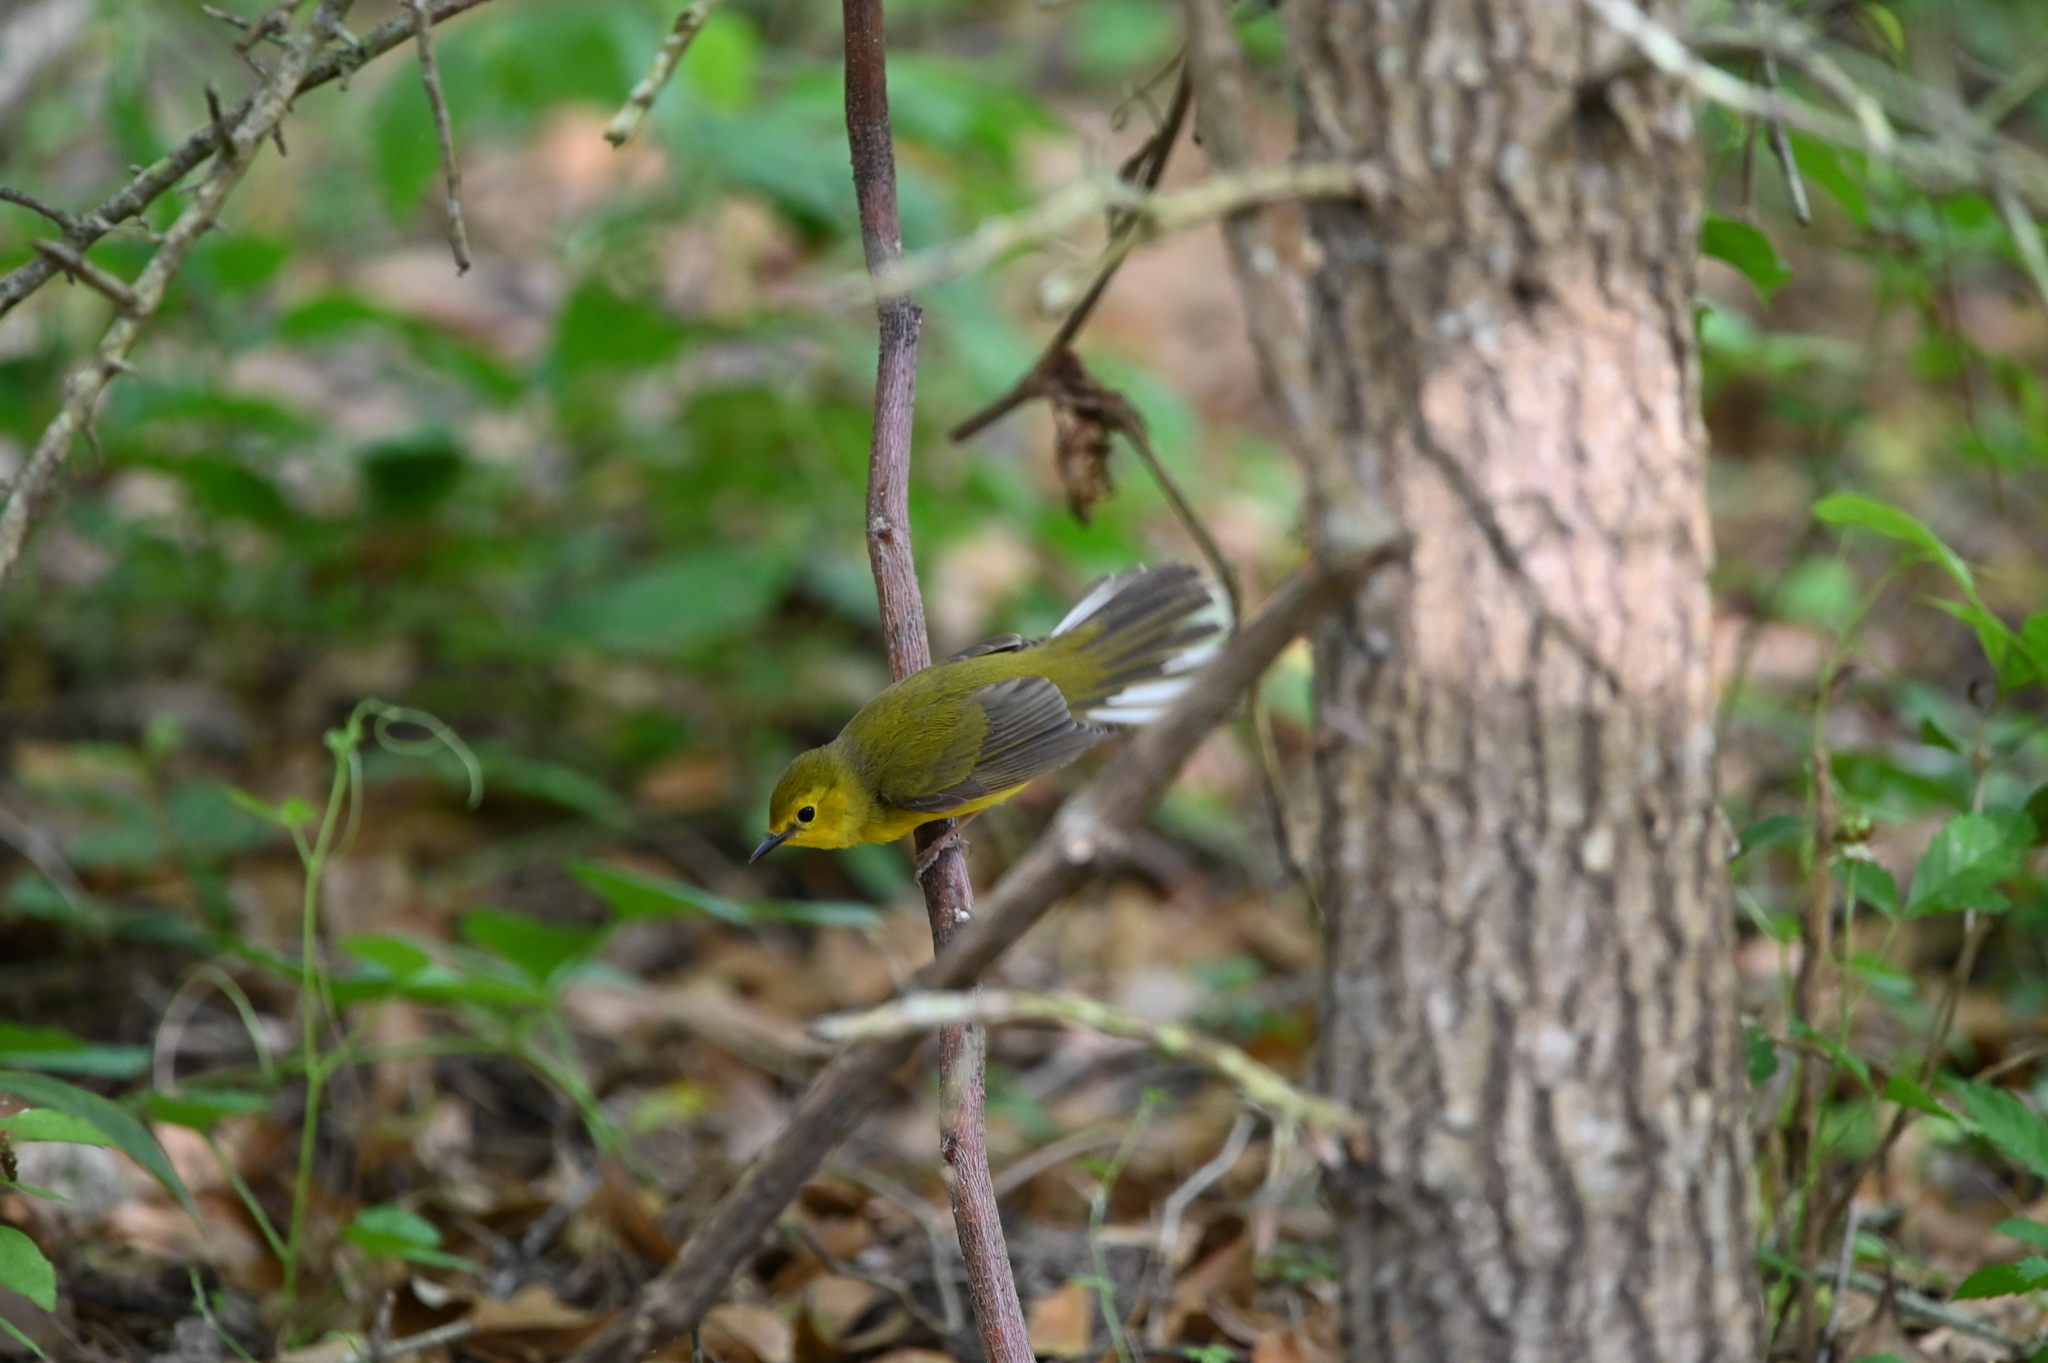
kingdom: Animalia
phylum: Chordata
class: Aves
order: Passeriformes
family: Parulidae
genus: Setophaga
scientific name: Setophaga citrina
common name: Hooded warbler
